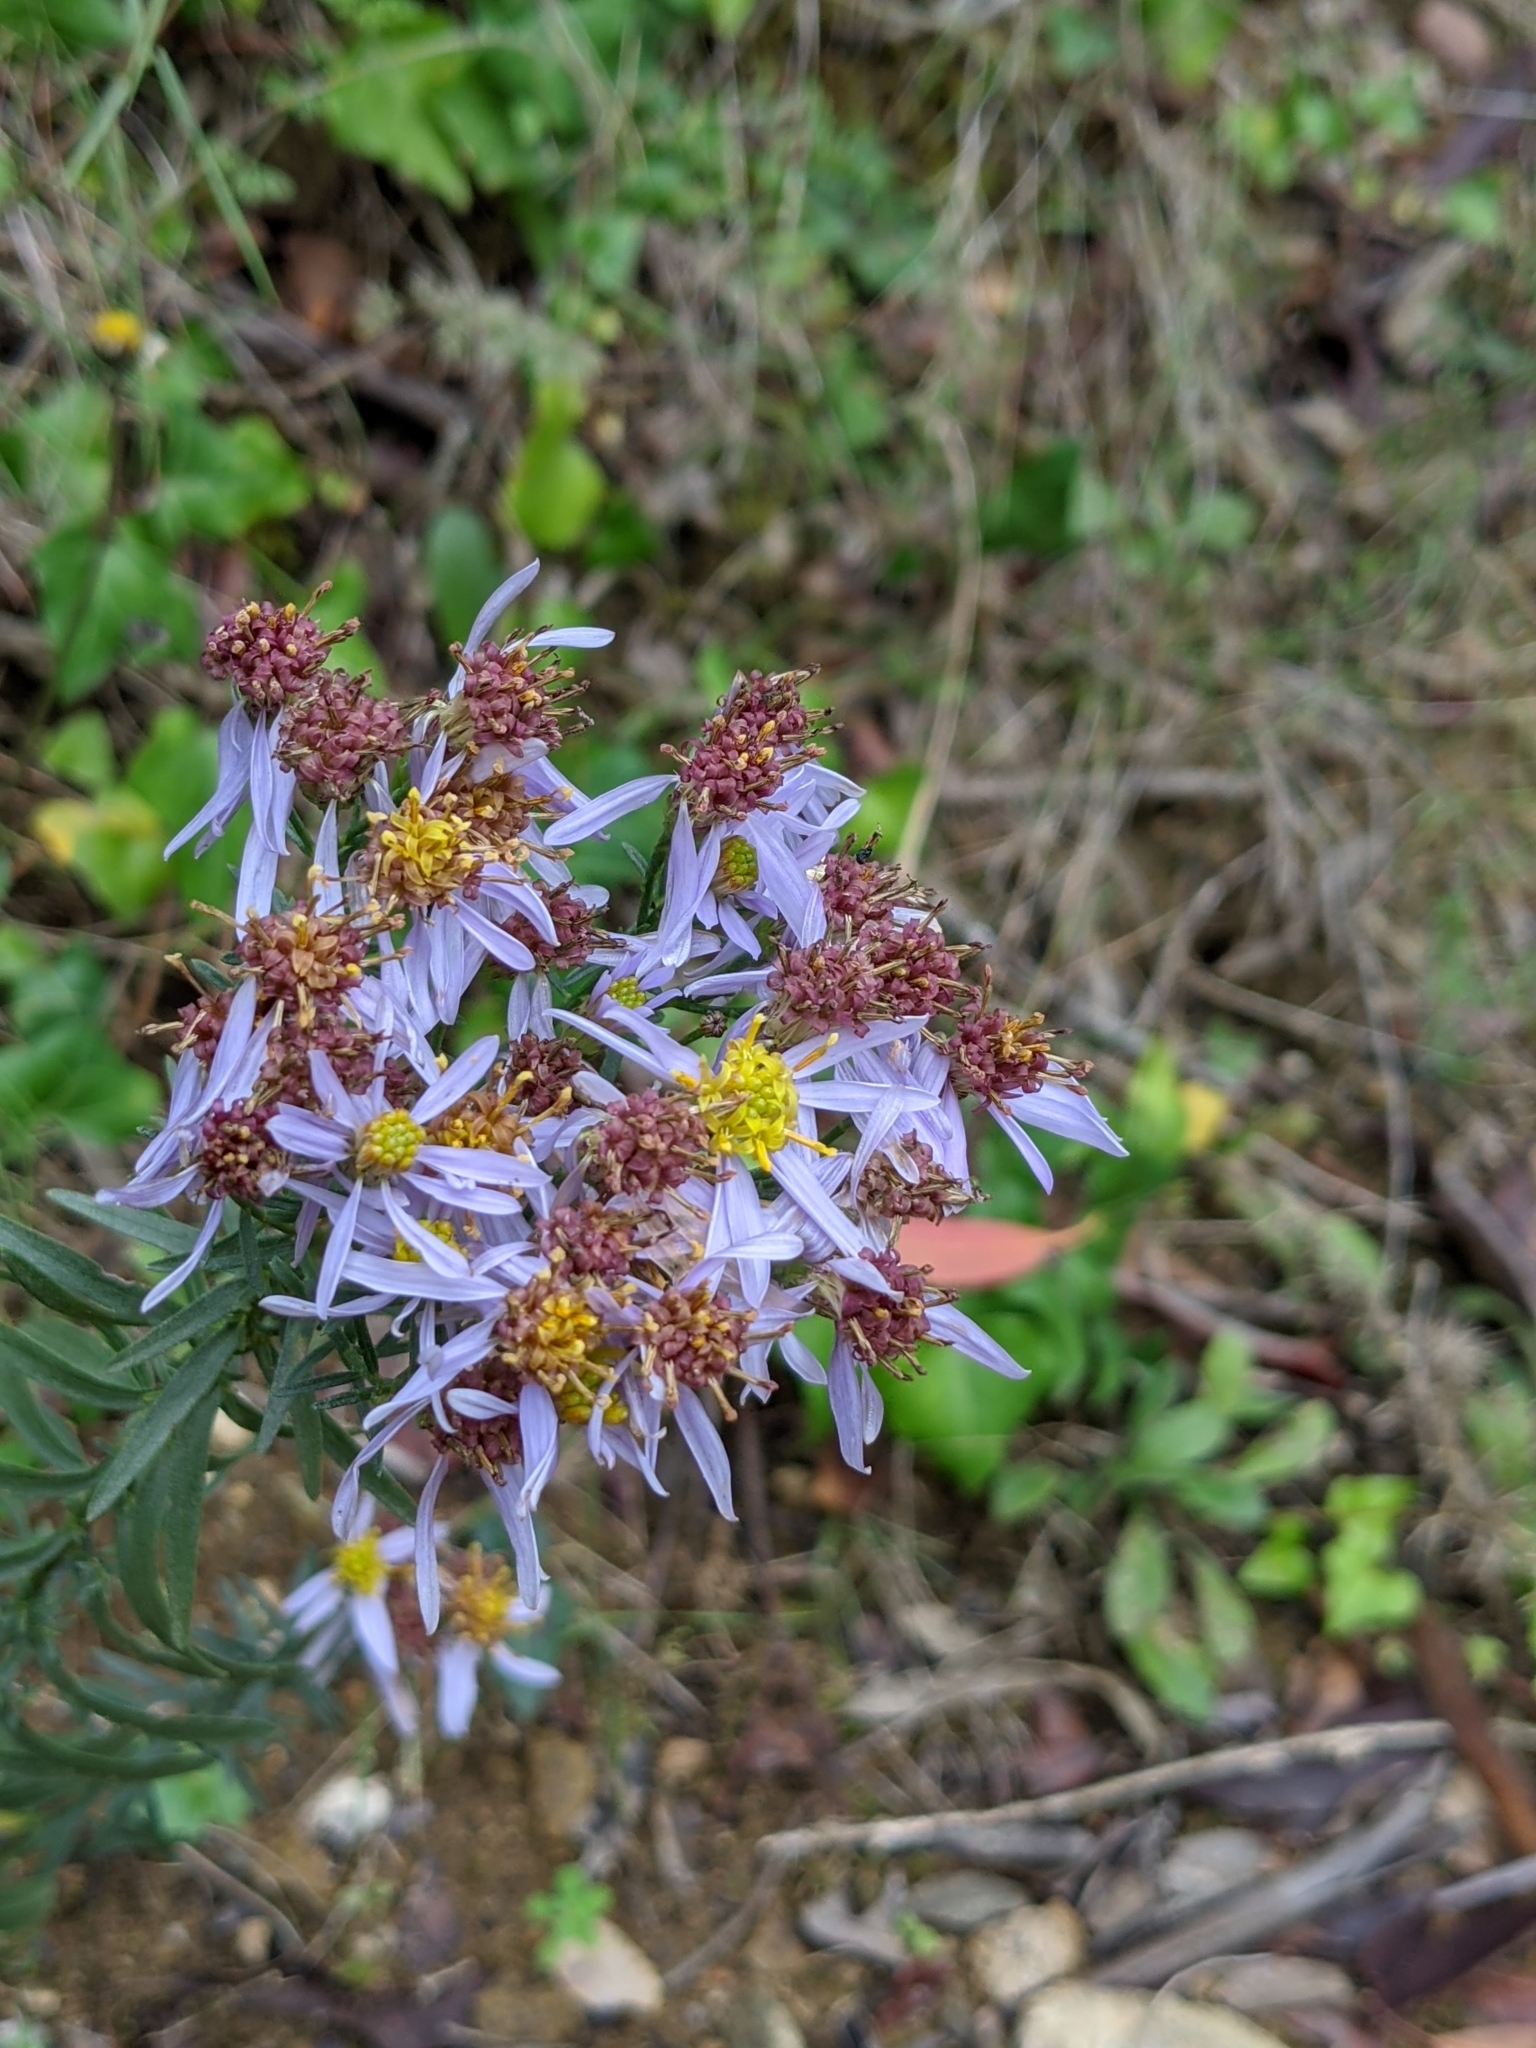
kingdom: Plantae
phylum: Tracheophyta
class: Magnoliopsida
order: Asterales
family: Asteraceae
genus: Galatella
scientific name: Galatella sedifolia
